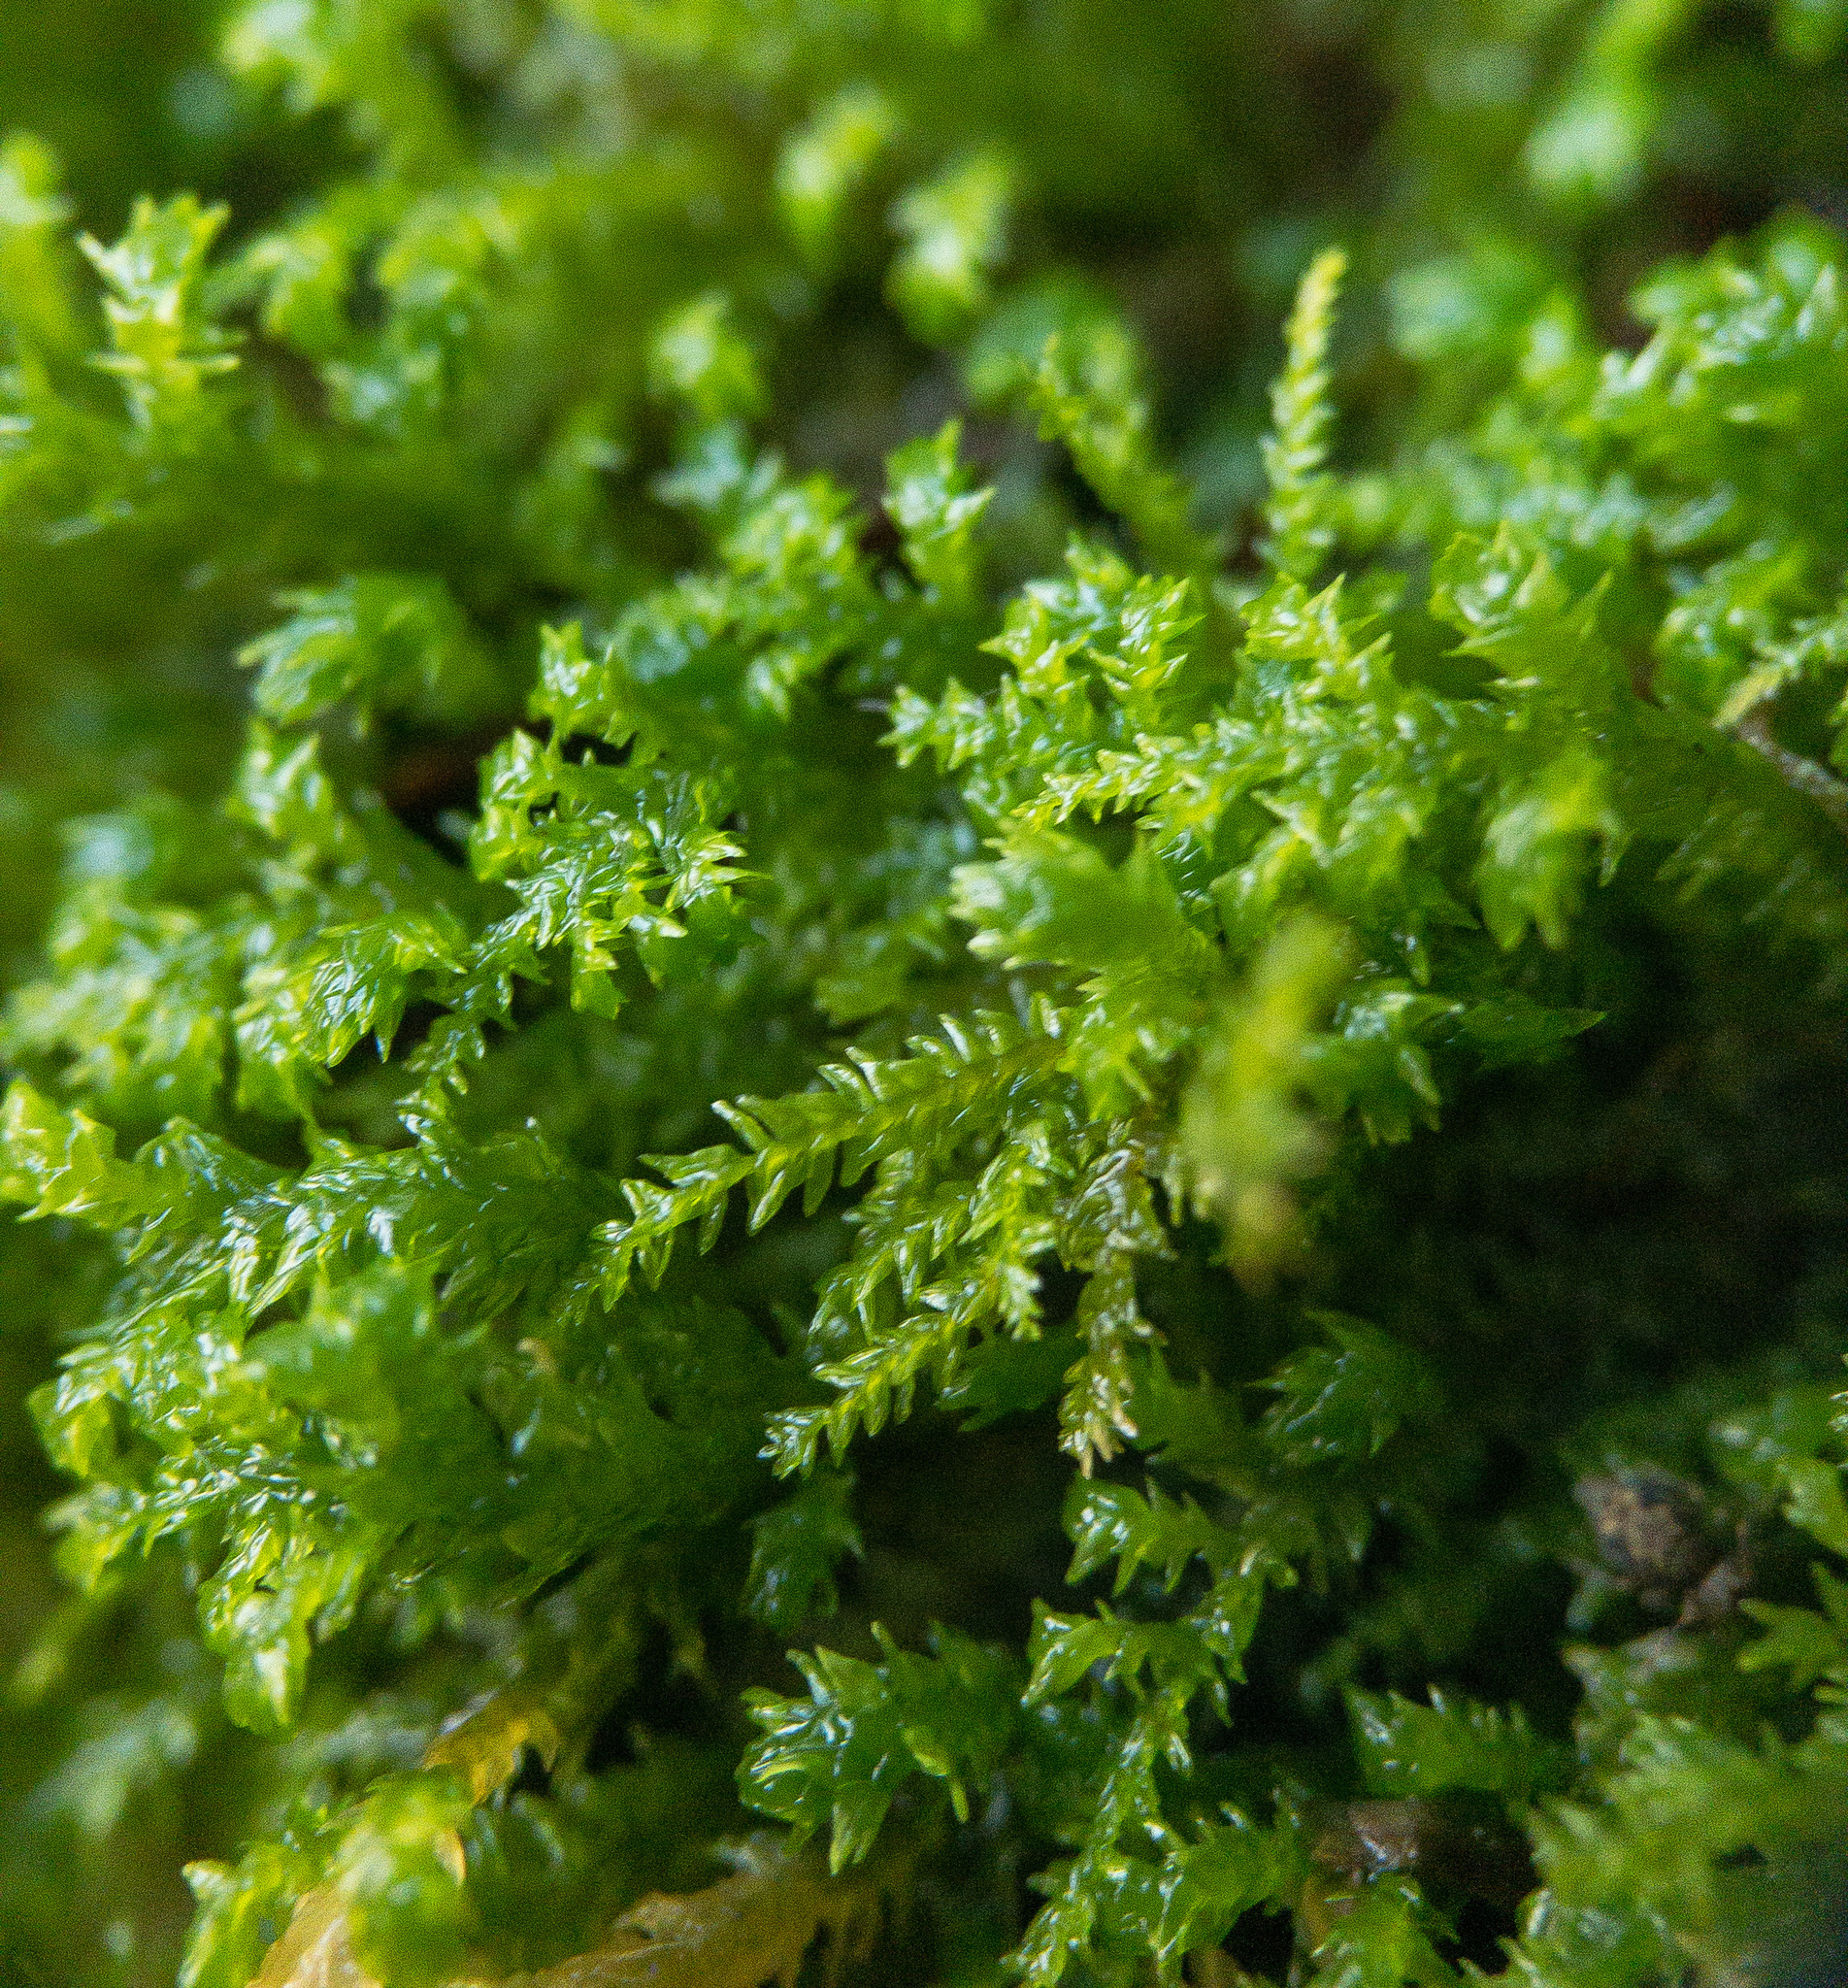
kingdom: Plantae
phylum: Bryophyta
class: Bryopsida
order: Hypnales
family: Neckeraceae
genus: Pseudanomodon
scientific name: Pseudanomodon attenuatus
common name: Tree-skirt moss
